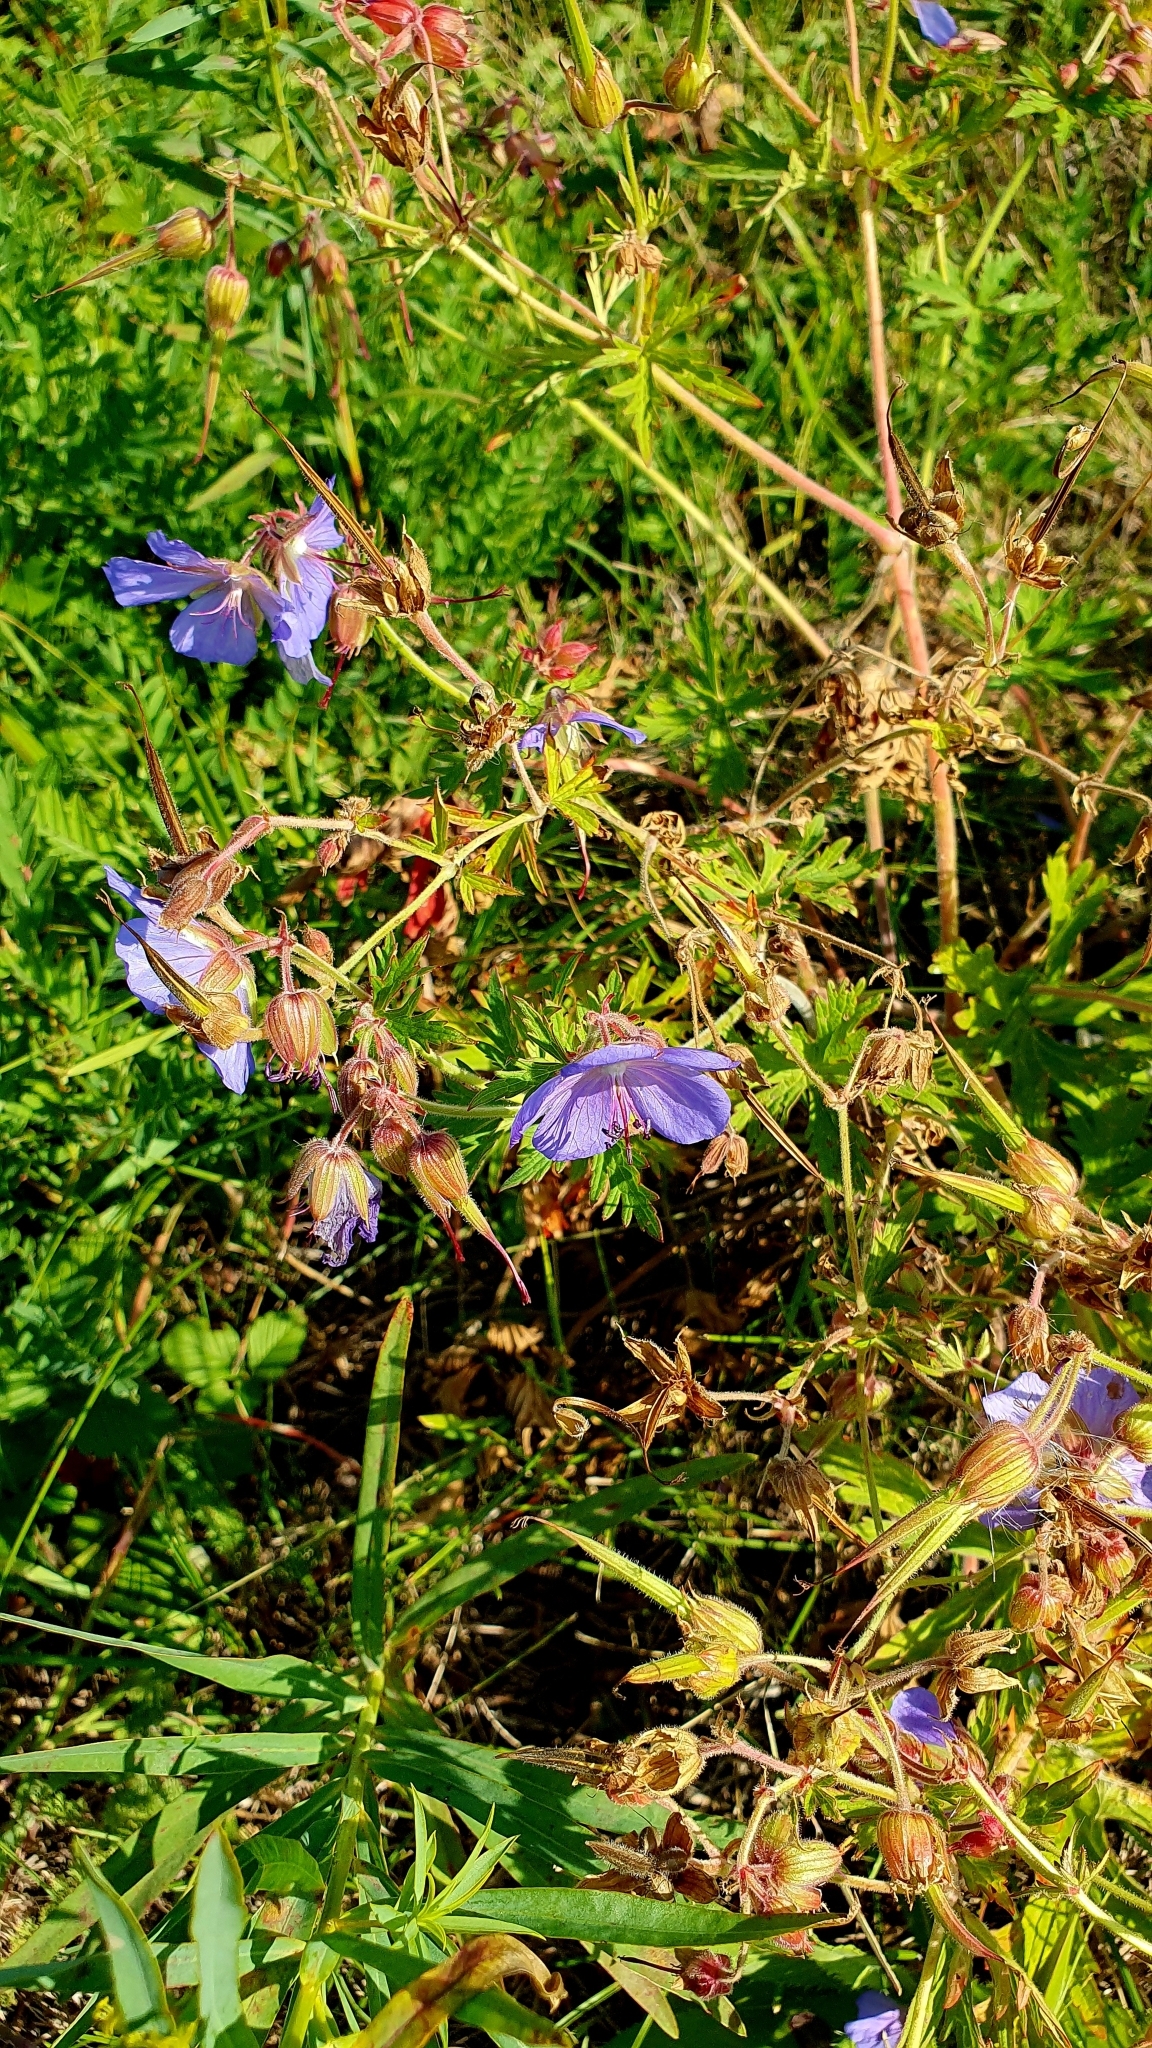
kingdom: Plantae
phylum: Tracheophyta
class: Magnoliopsida
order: Geraniales
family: Geraniaceae
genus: Geranium
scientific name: Geranium pratense
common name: Meadow crane's-bill
